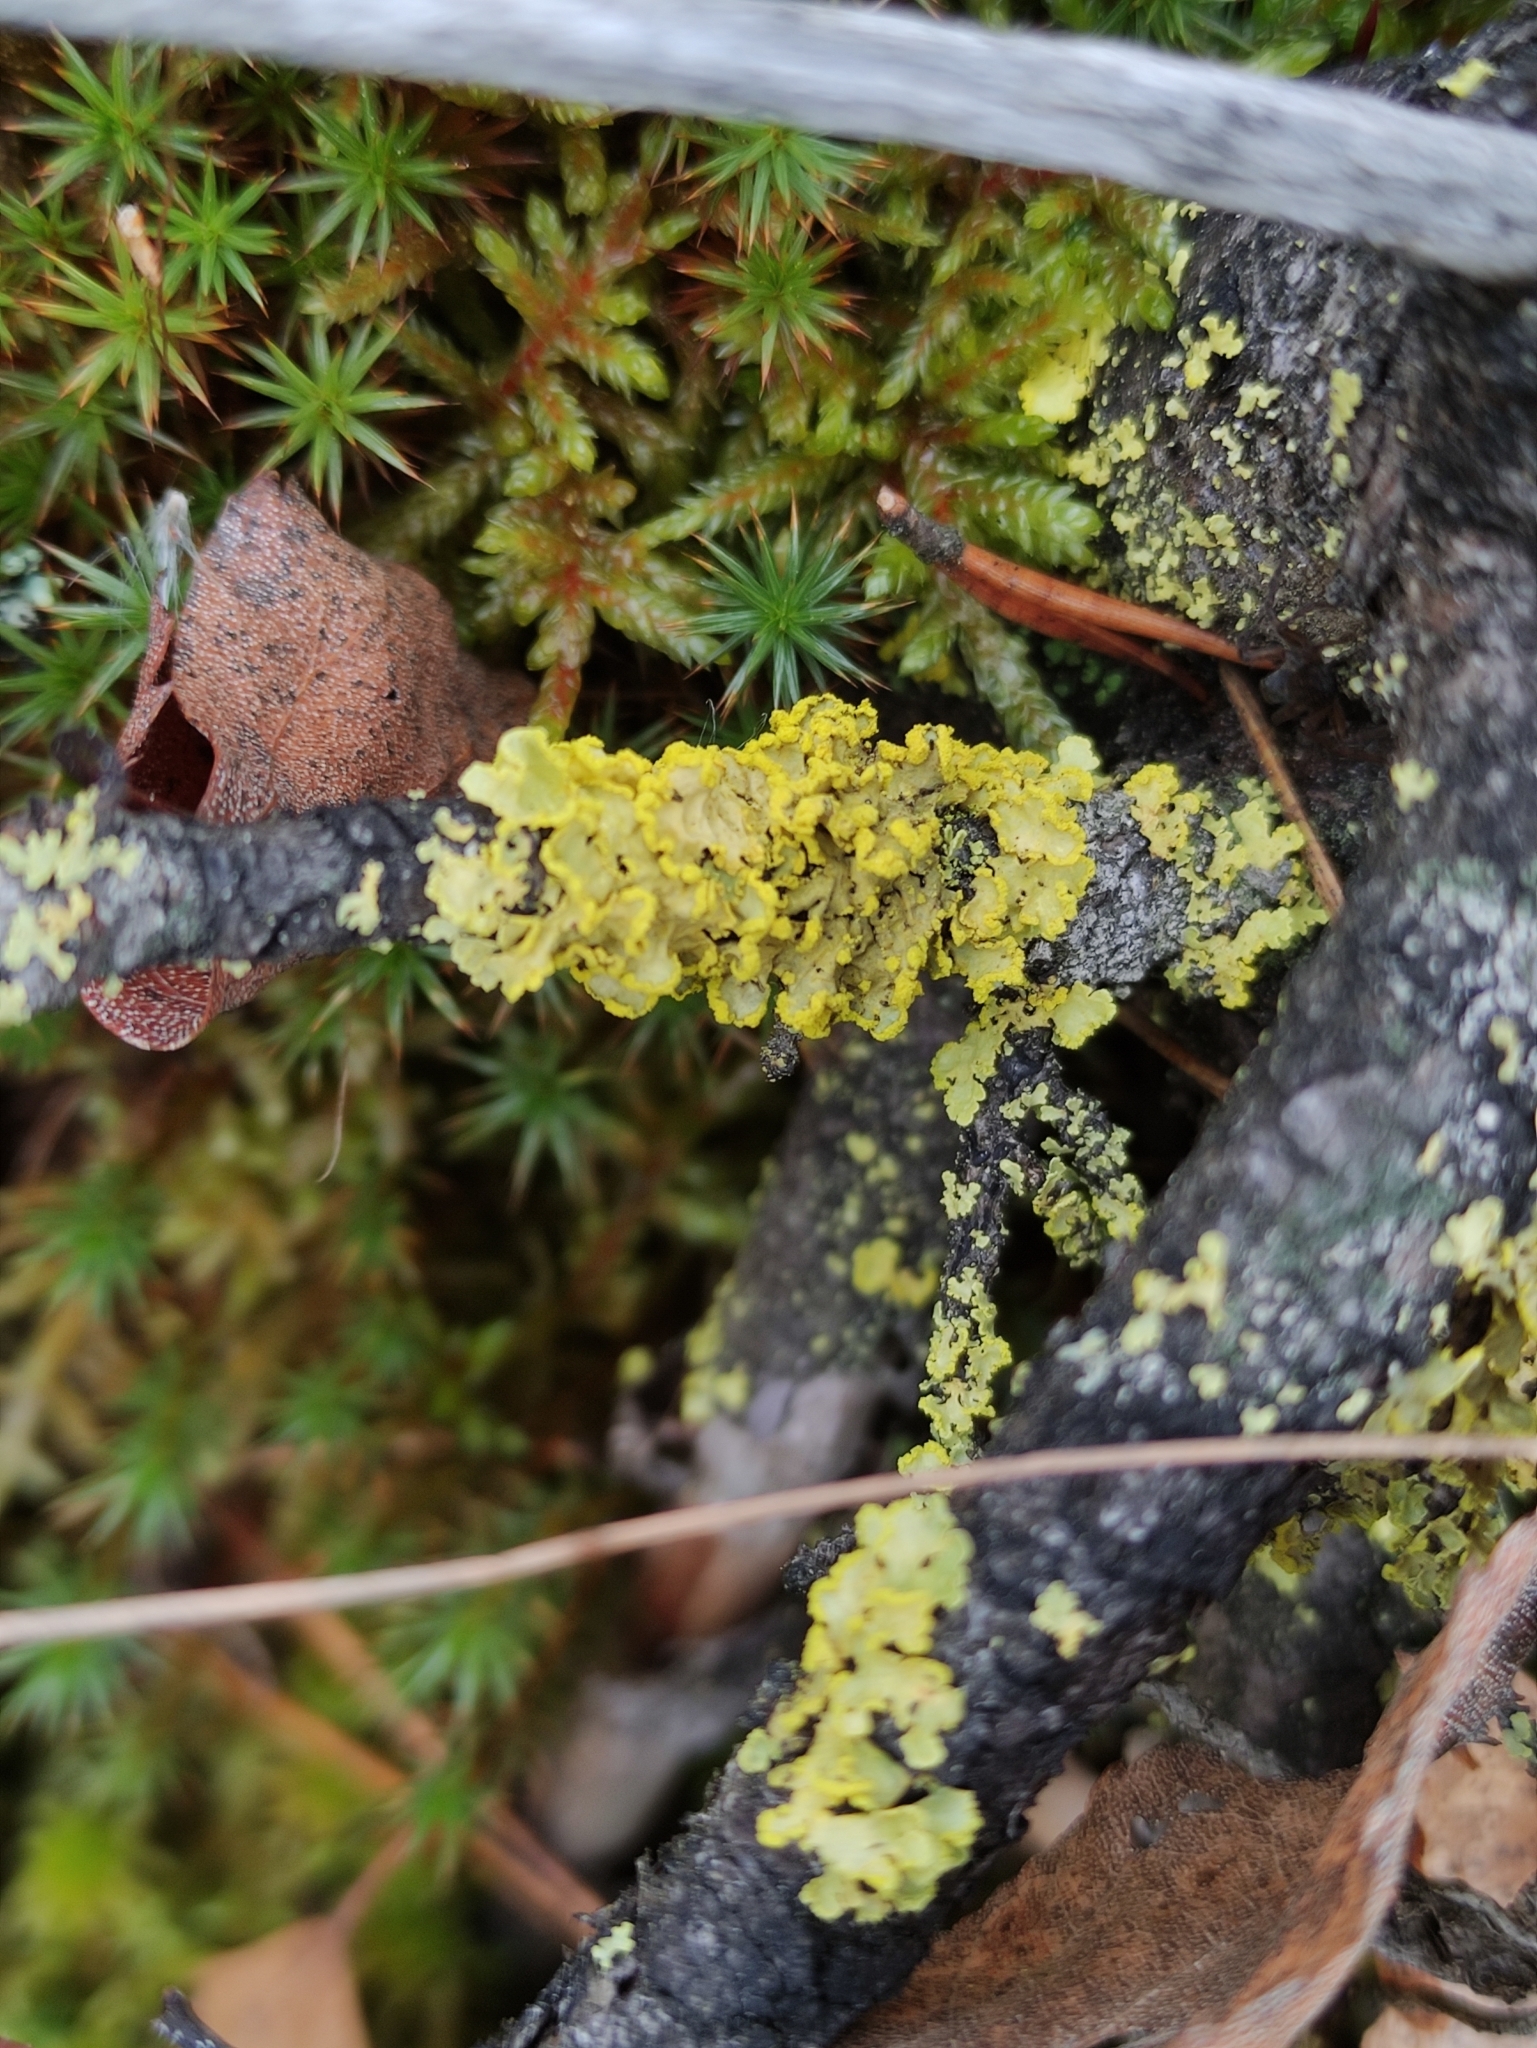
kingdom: Fungi
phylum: Ascomycota
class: Lecanoromycetes
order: Lecanorales
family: Parmeliaceae
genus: Vulpicida
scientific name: Vulpicida pinastri
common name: Powdered sunshine lichen
